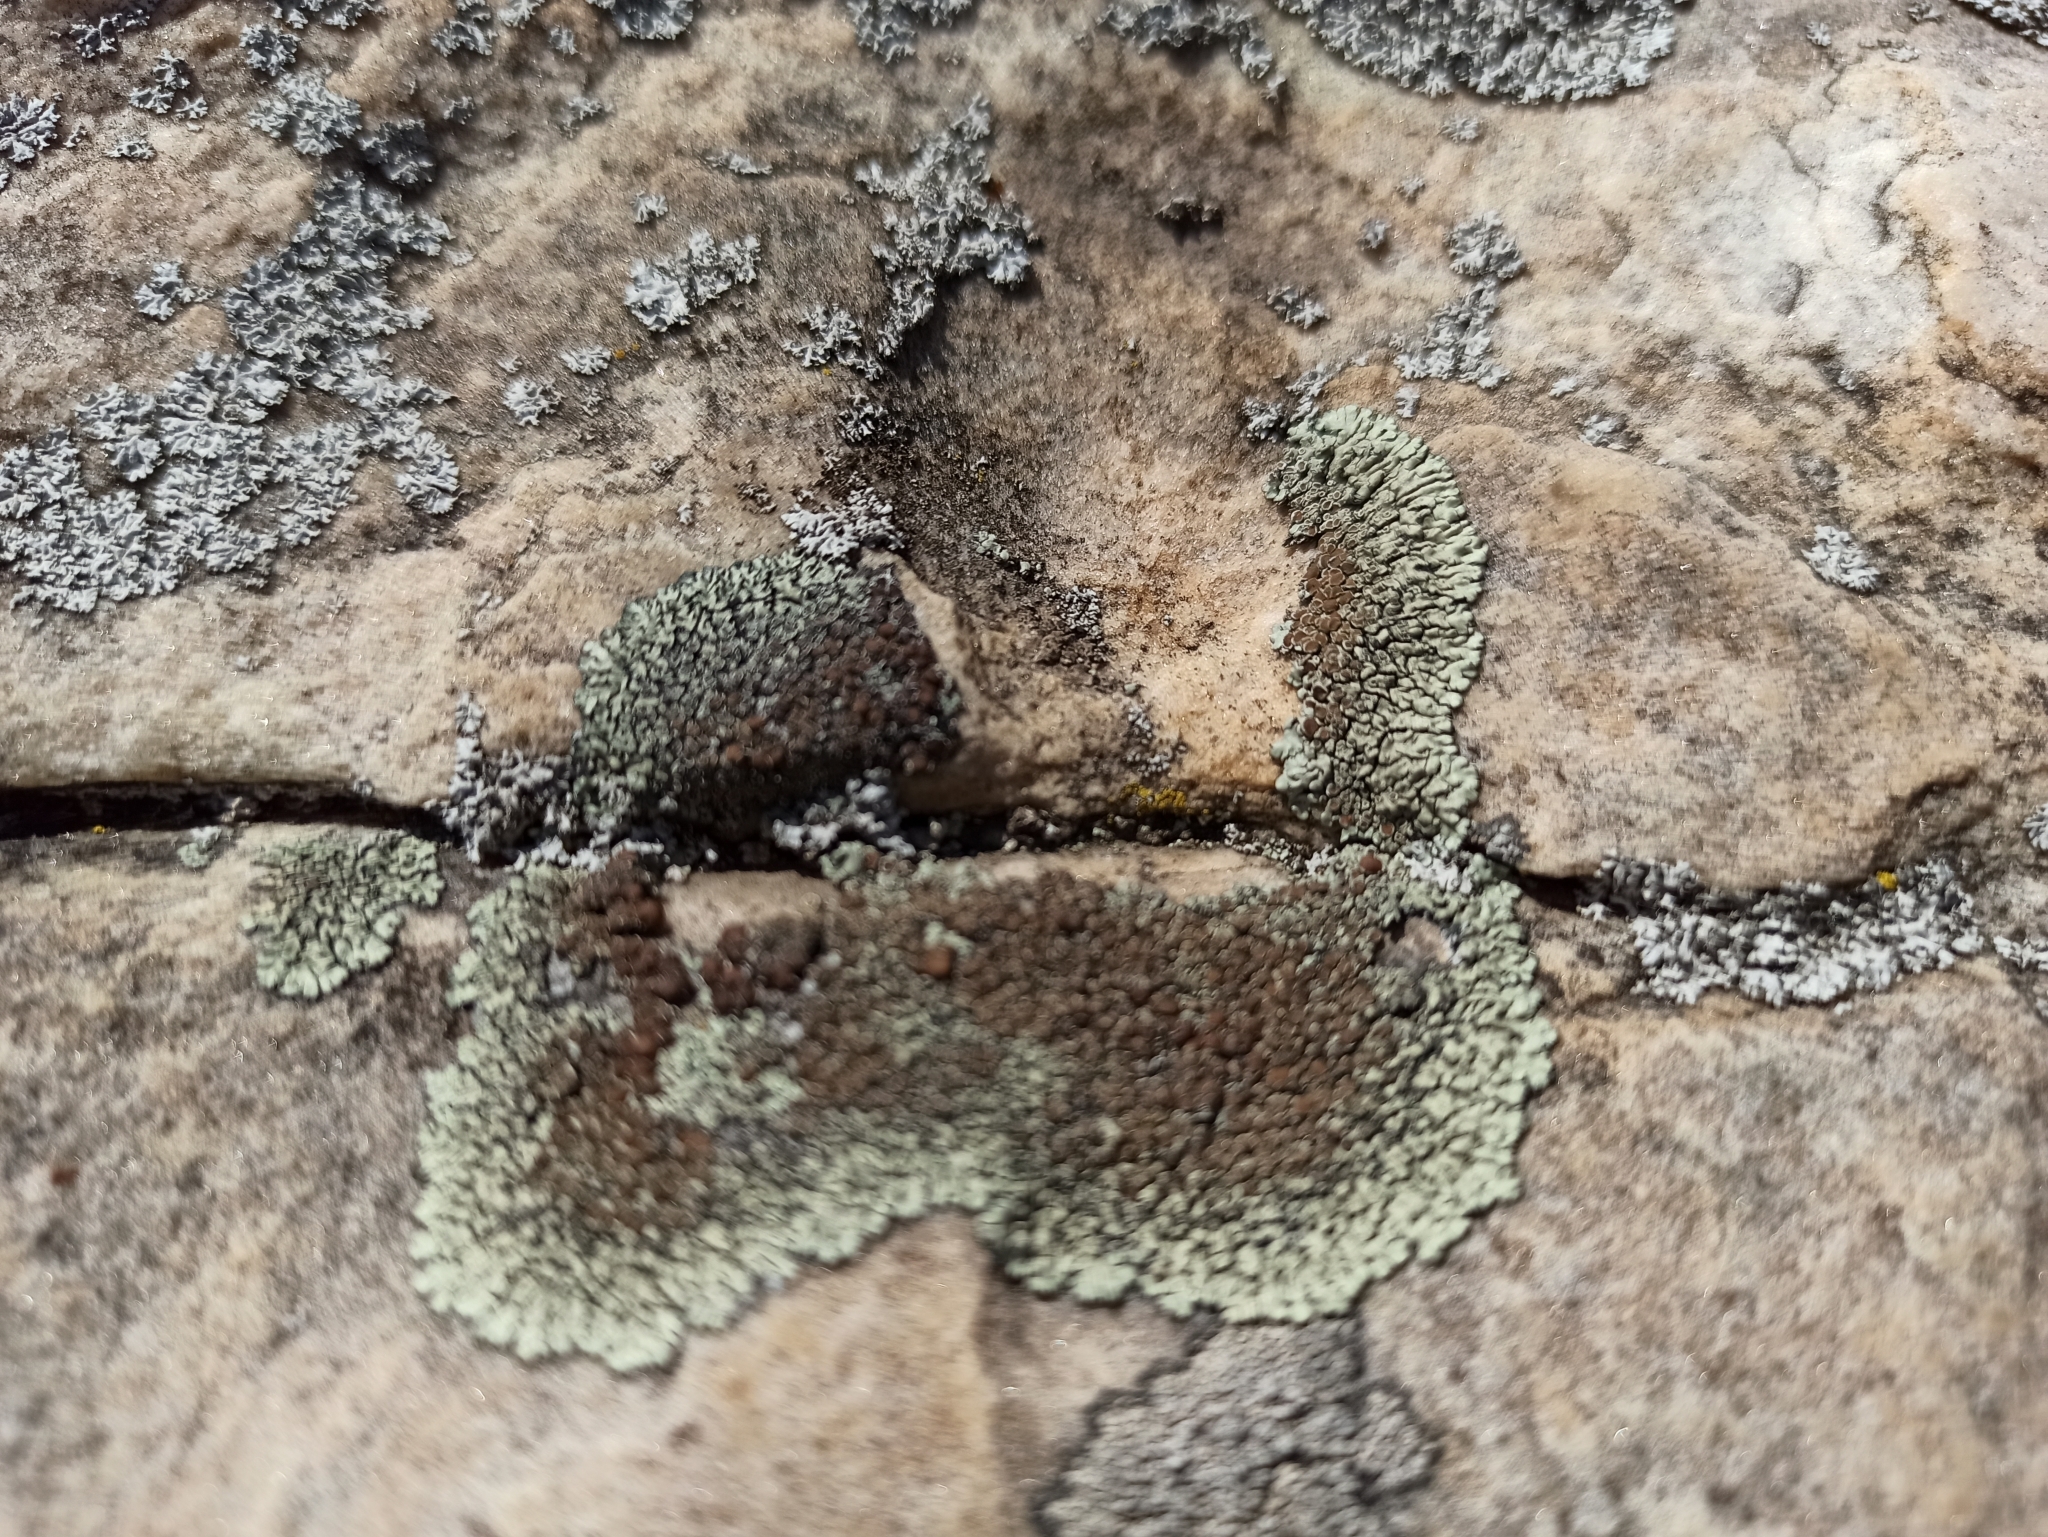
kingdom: Fungi
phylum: Ascomycota
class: Lecanoromycetes
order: Lecanorales
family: Lecanoraceae
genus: Protoparmeliopsis
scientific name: Protoparmeliopsis muralis
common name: Stonewall rim lichen
